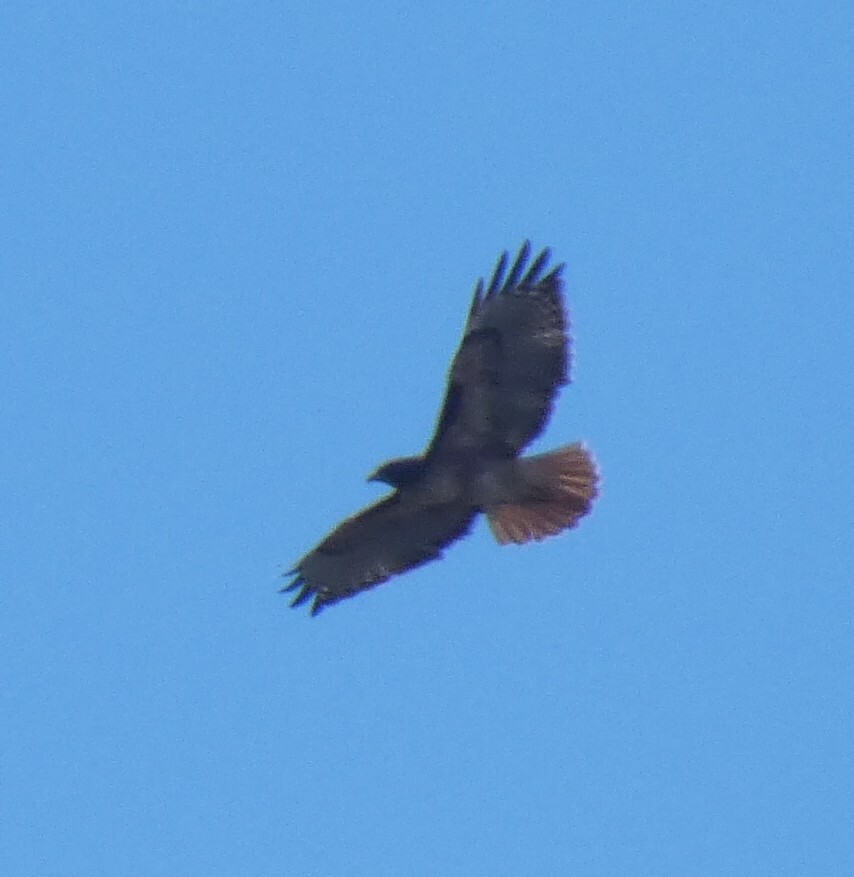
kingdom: Animalia
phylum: Chordata
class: Aves
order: Accipitriformes
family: Accipitridae
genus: Buteo
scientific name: Buteo jamaicensis
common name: Red-tailed hawk
